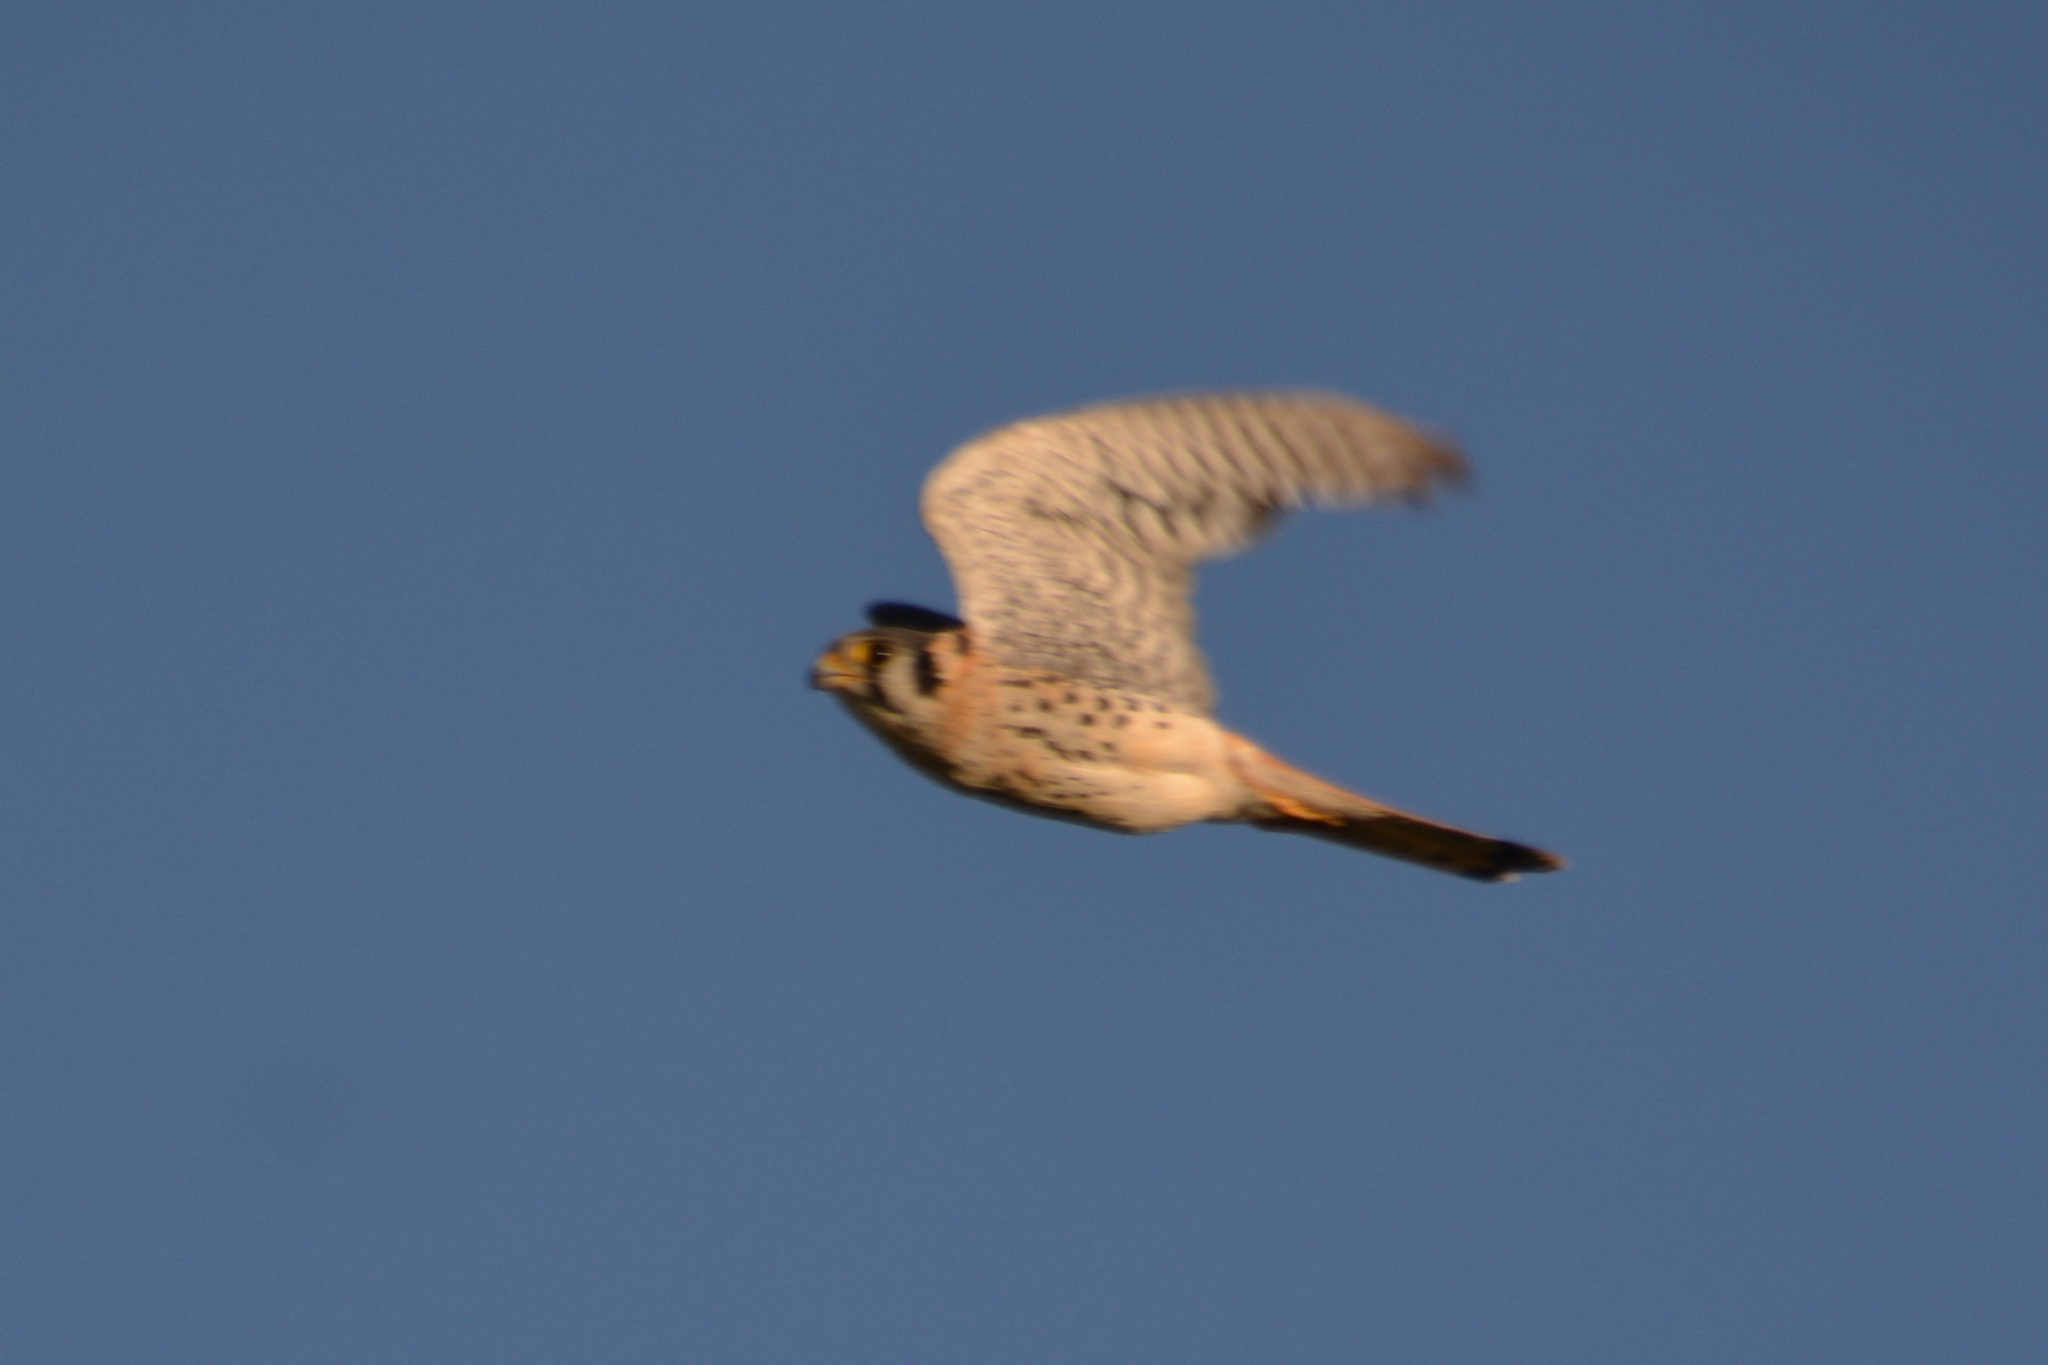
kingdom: Animalia
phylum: Chordata
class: Aves
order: Falconiformes
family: Falconidae
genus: Falco
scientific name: Falco sparverius
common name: American kestrel
